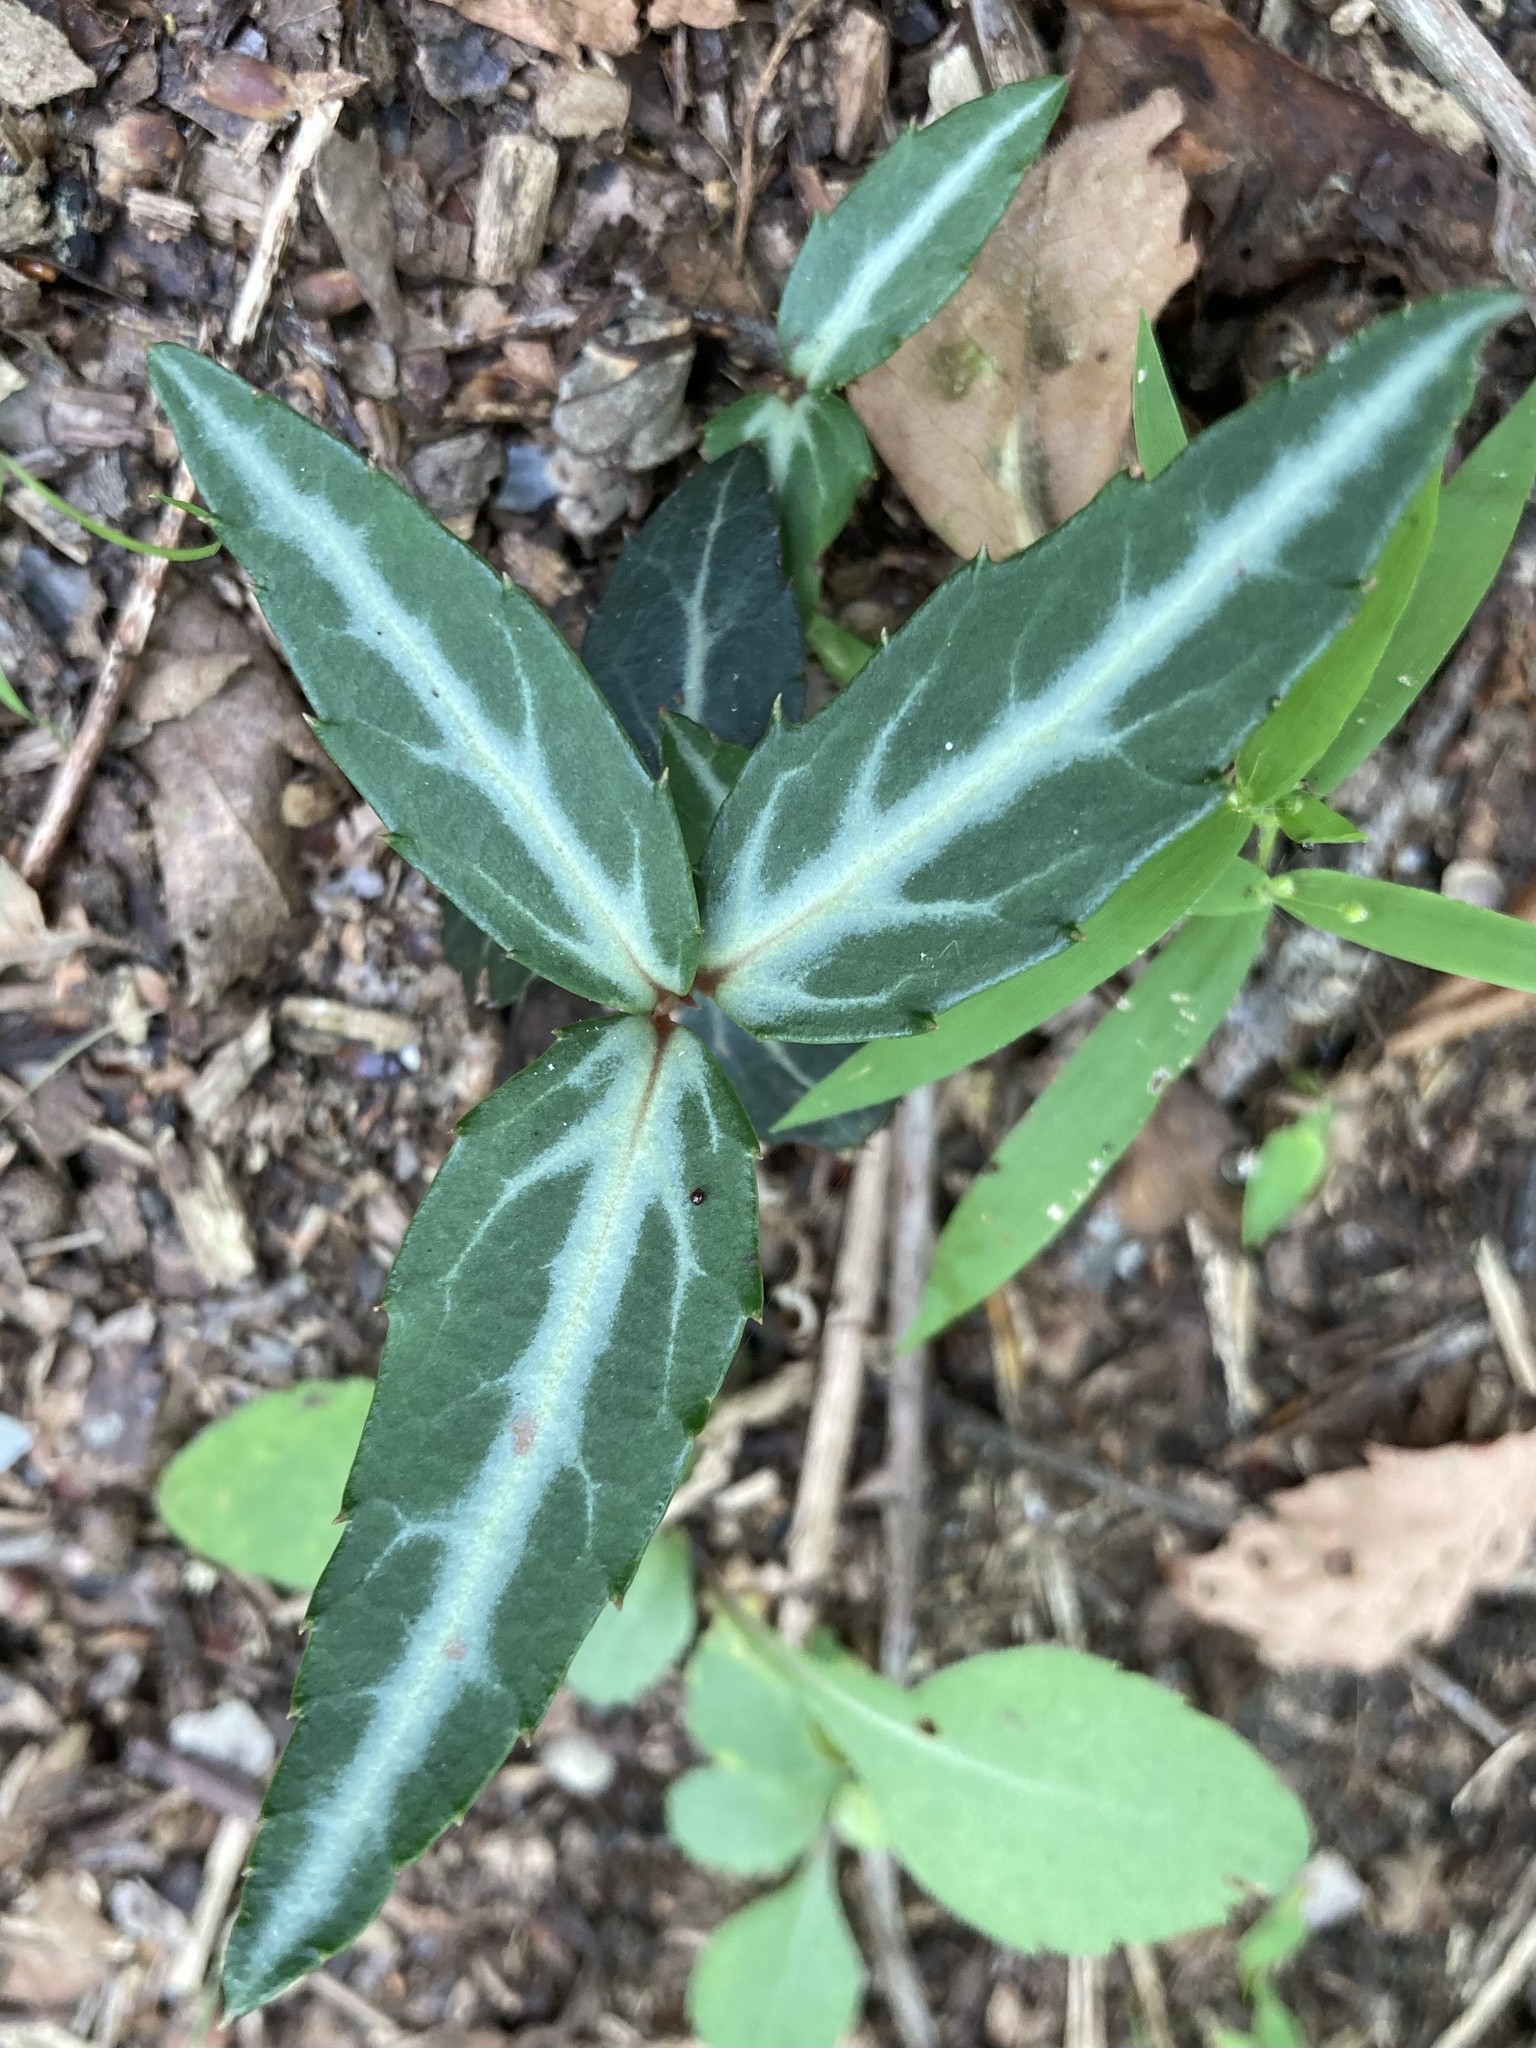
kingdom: Plantae
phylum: Tracheophyta
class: Magnoliopsida
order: Ericales
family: Ericaceae
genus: Chimaphila
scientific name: Chimaphila maculata
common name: Spotted pipsissewa
